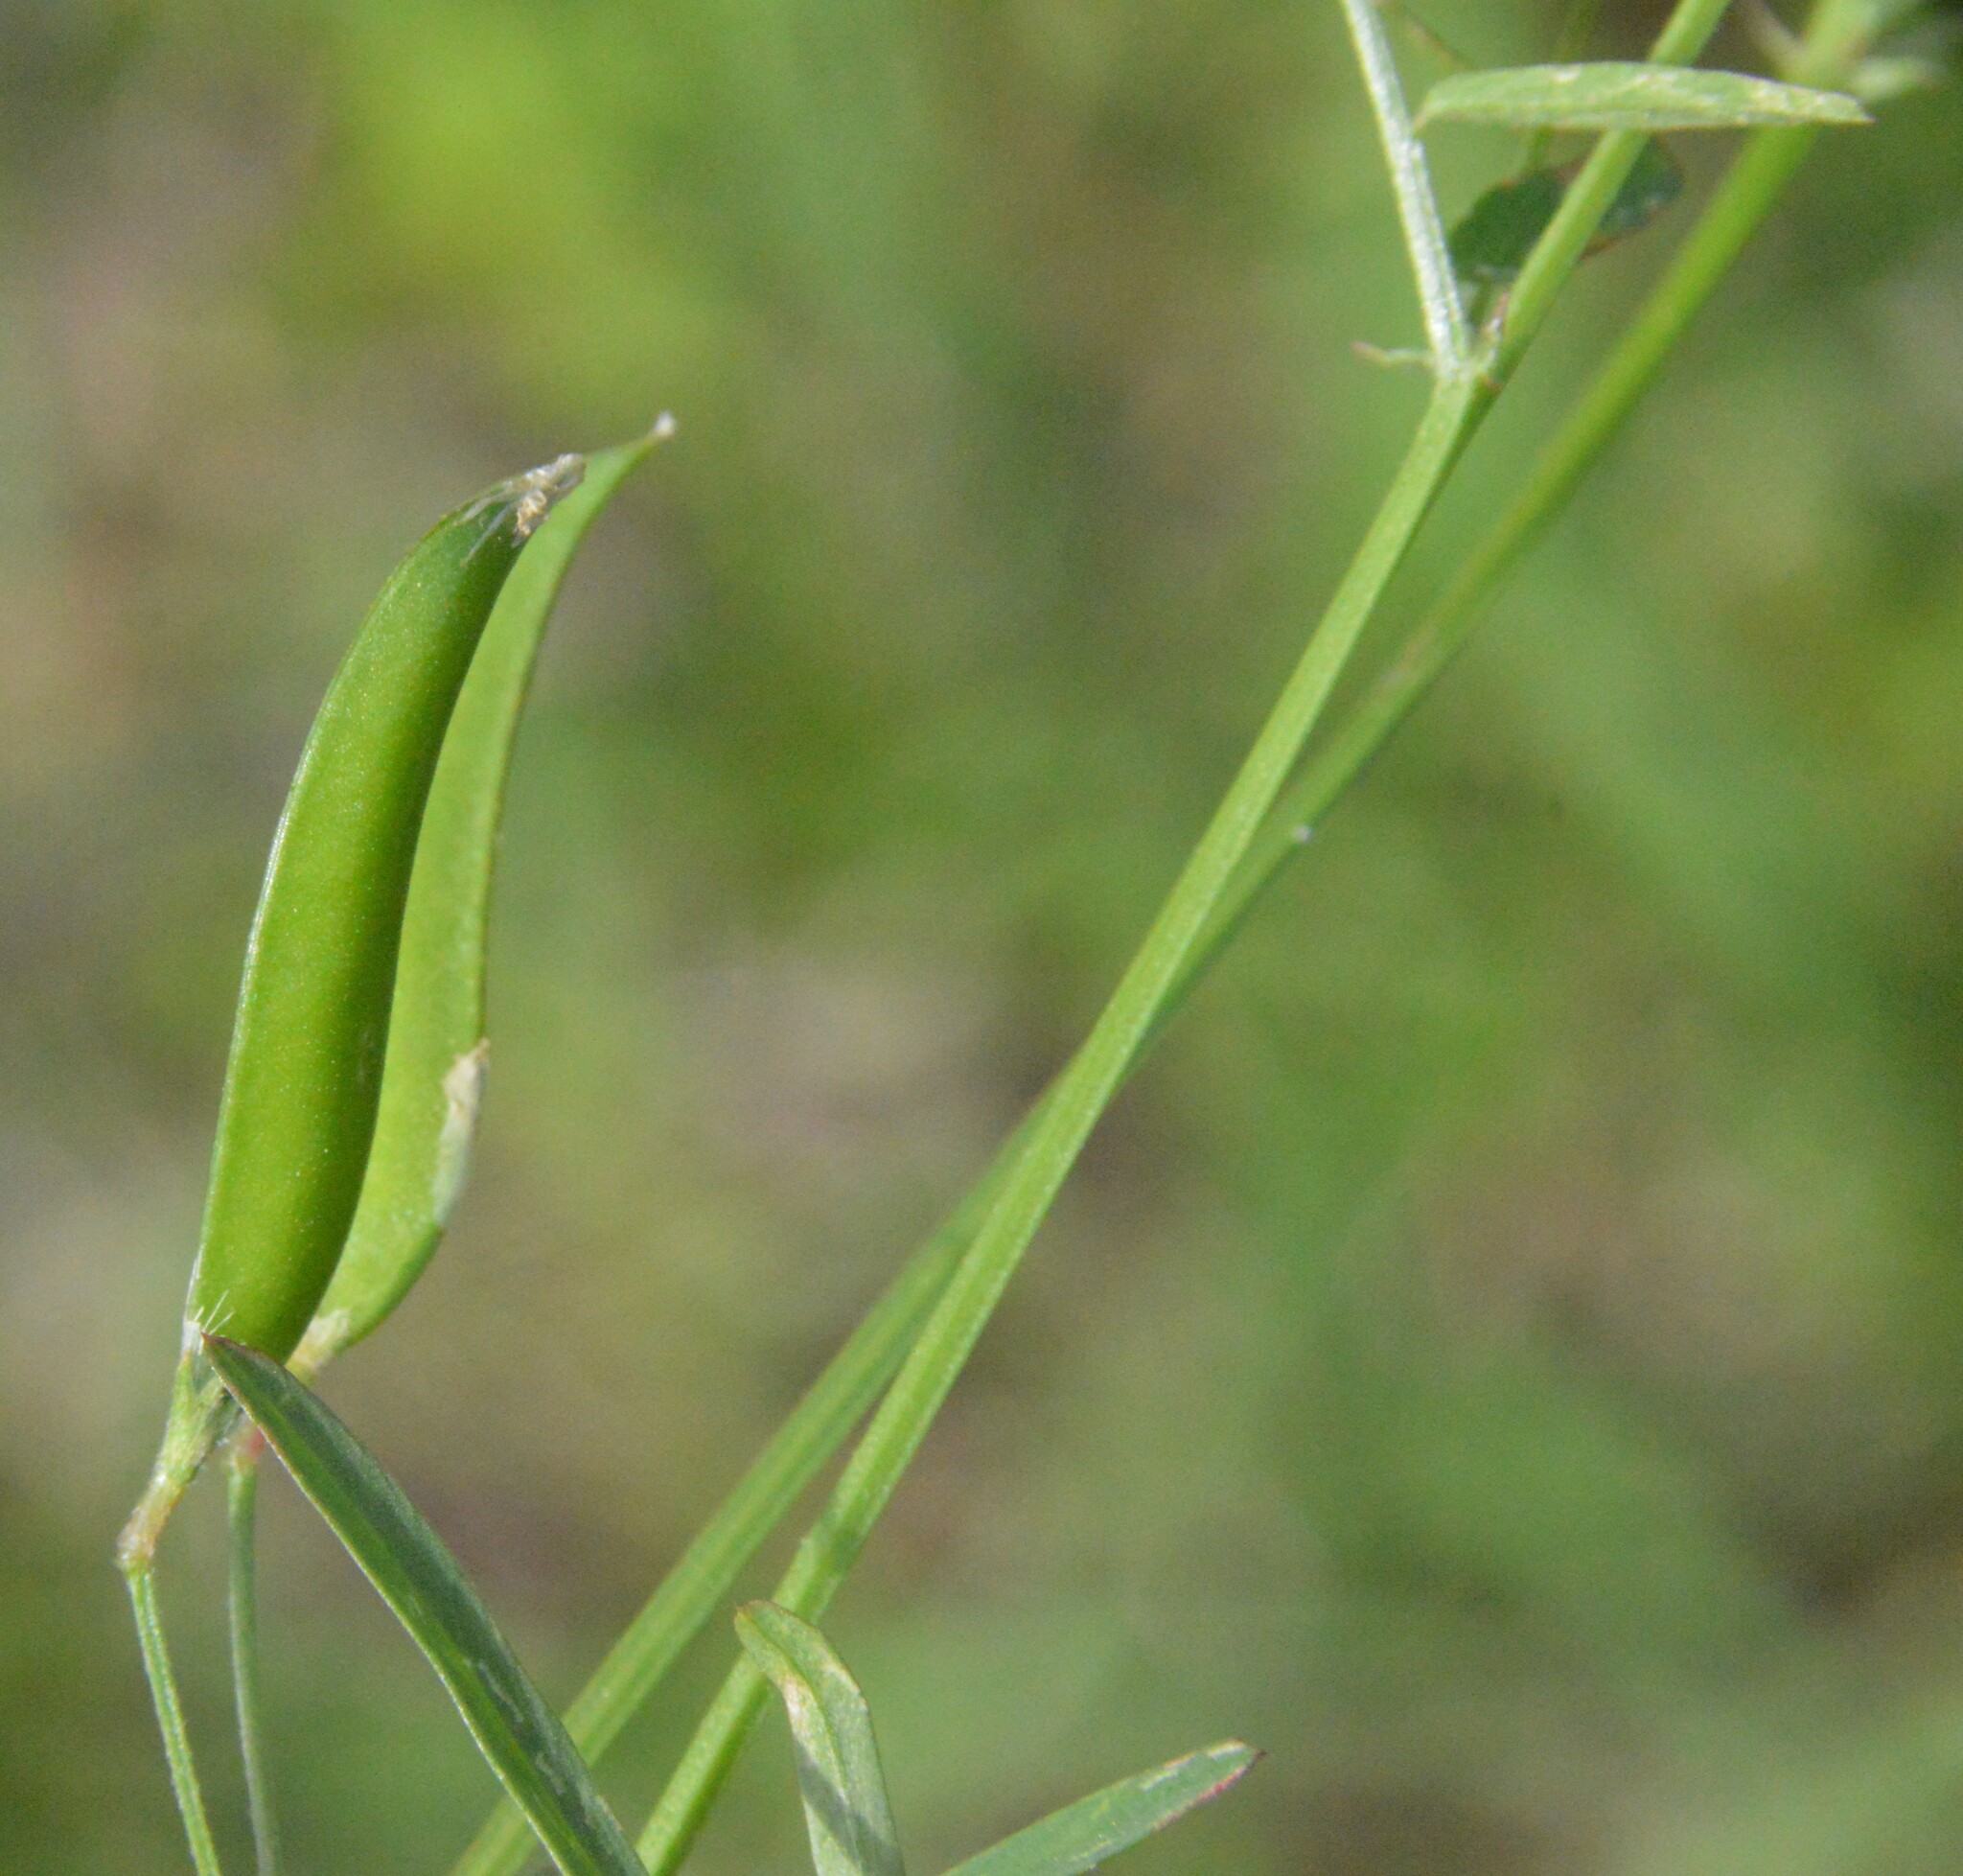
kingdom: Plantae
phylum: Tracheophyta
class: Magnoliopsida
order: Fabales
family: Fabaceae
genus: Vicia
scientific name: Vicia minutiflora
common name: Pygmy-flower vetch
